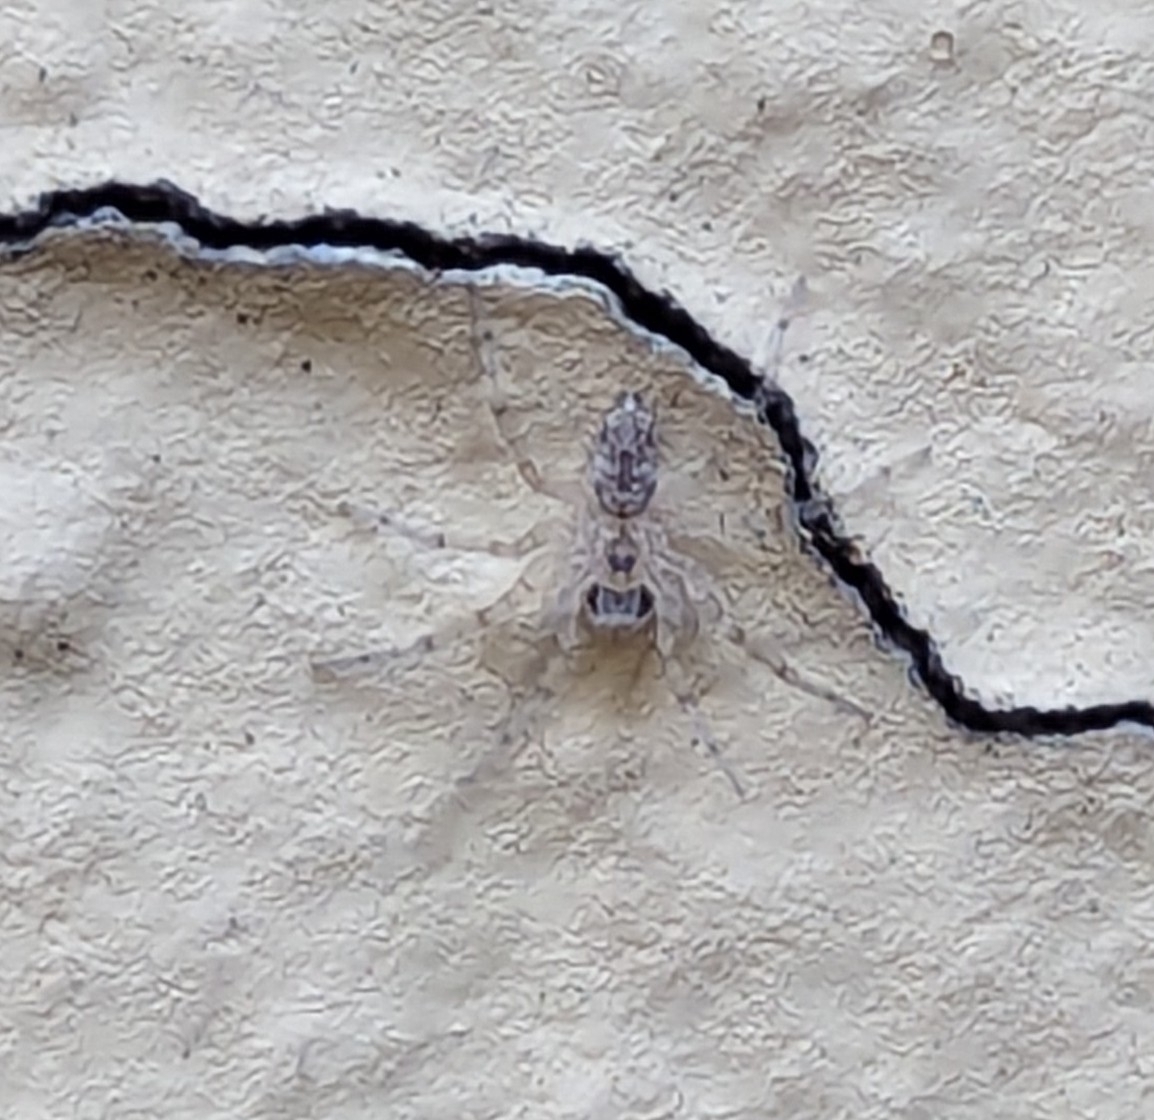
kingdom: Animalia
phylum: Arthropoda
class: Arachnida
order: Araneae
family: Oecobiidae
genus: Oecobius
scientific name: Oecobius
